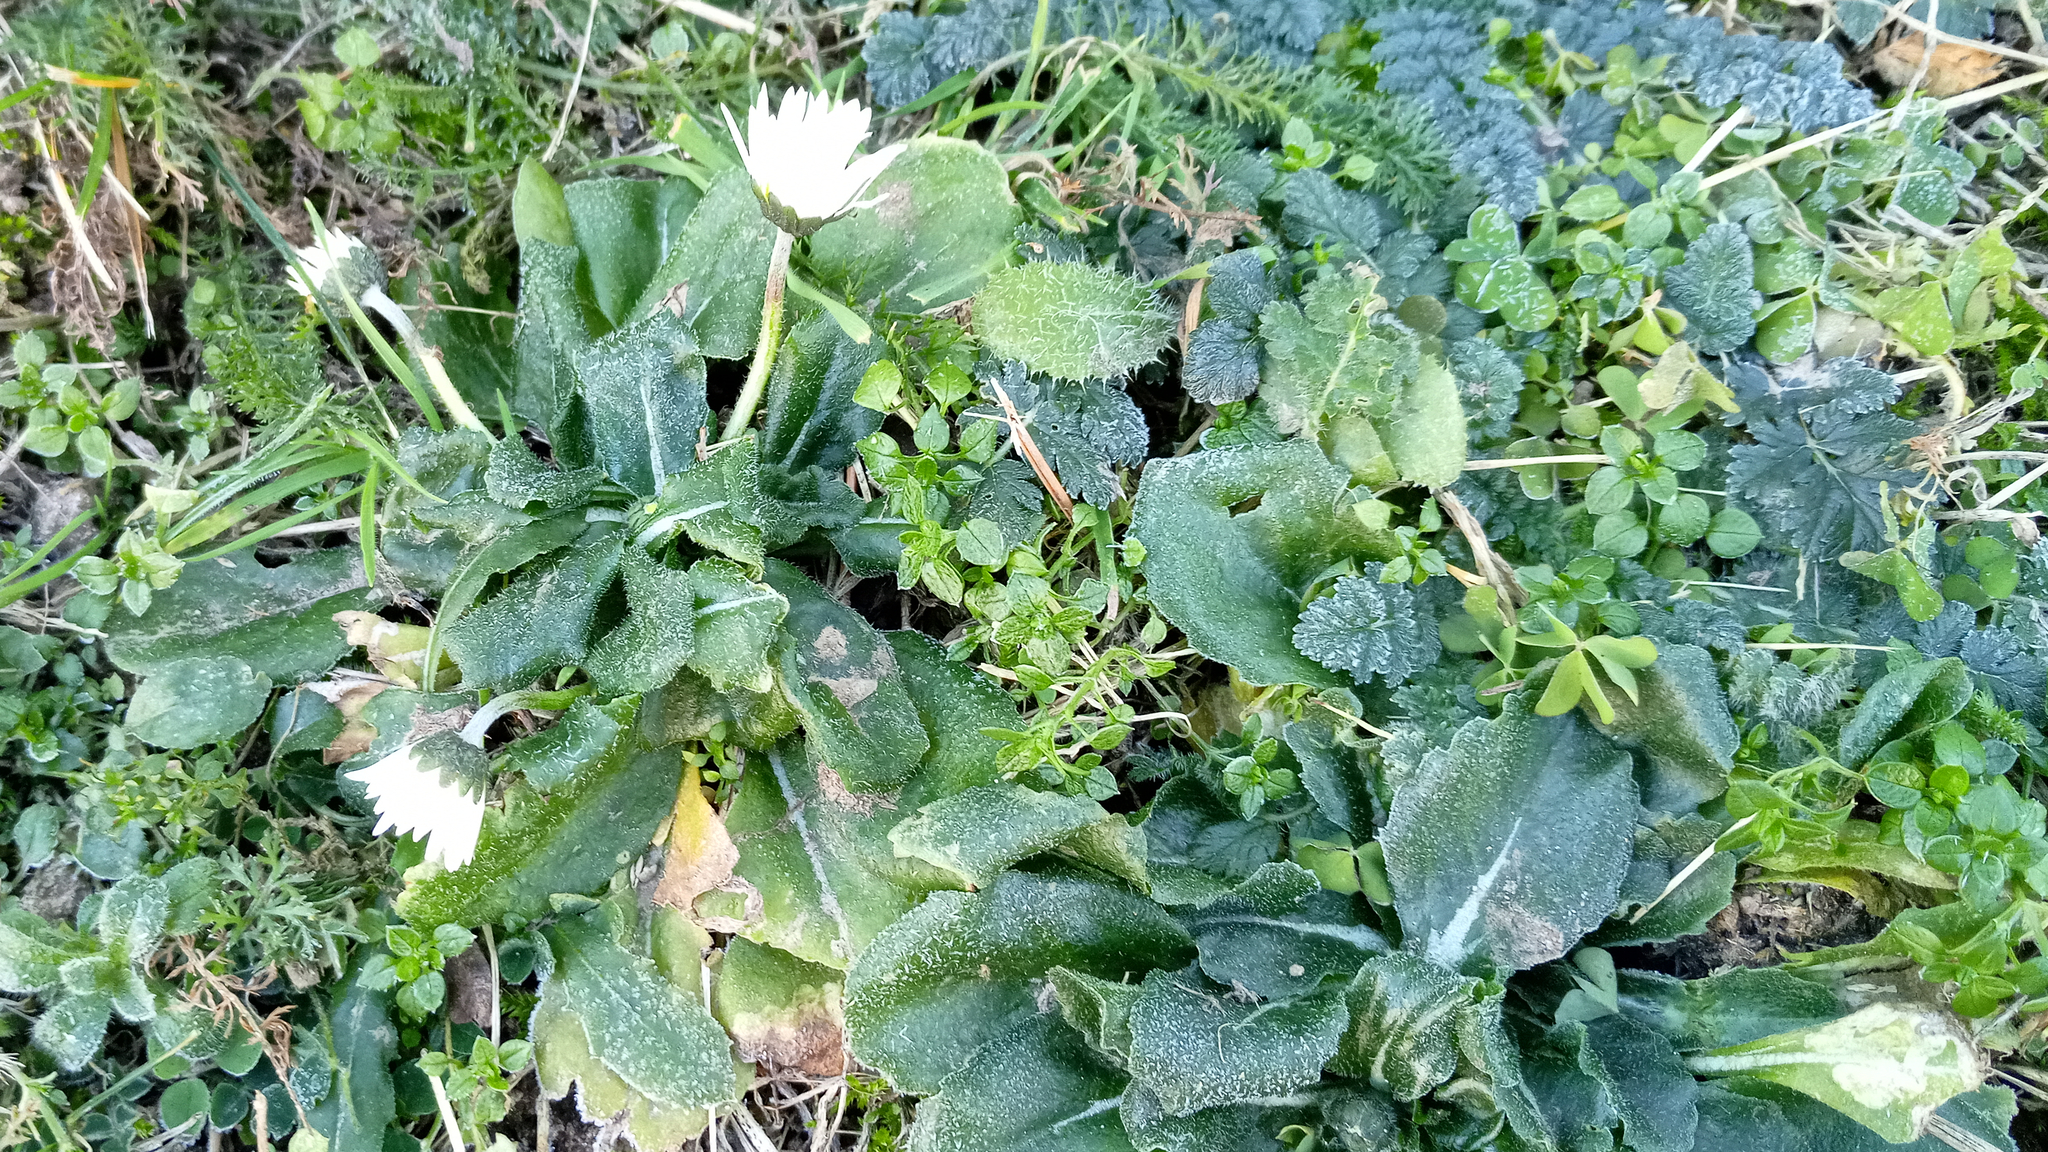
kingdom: Plantae
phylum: Tracheophyta
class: Magnoliopsida
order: Asterales
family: Asteraceae
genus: Bellis
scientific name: Bellis perennis
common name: Lawndaisy
